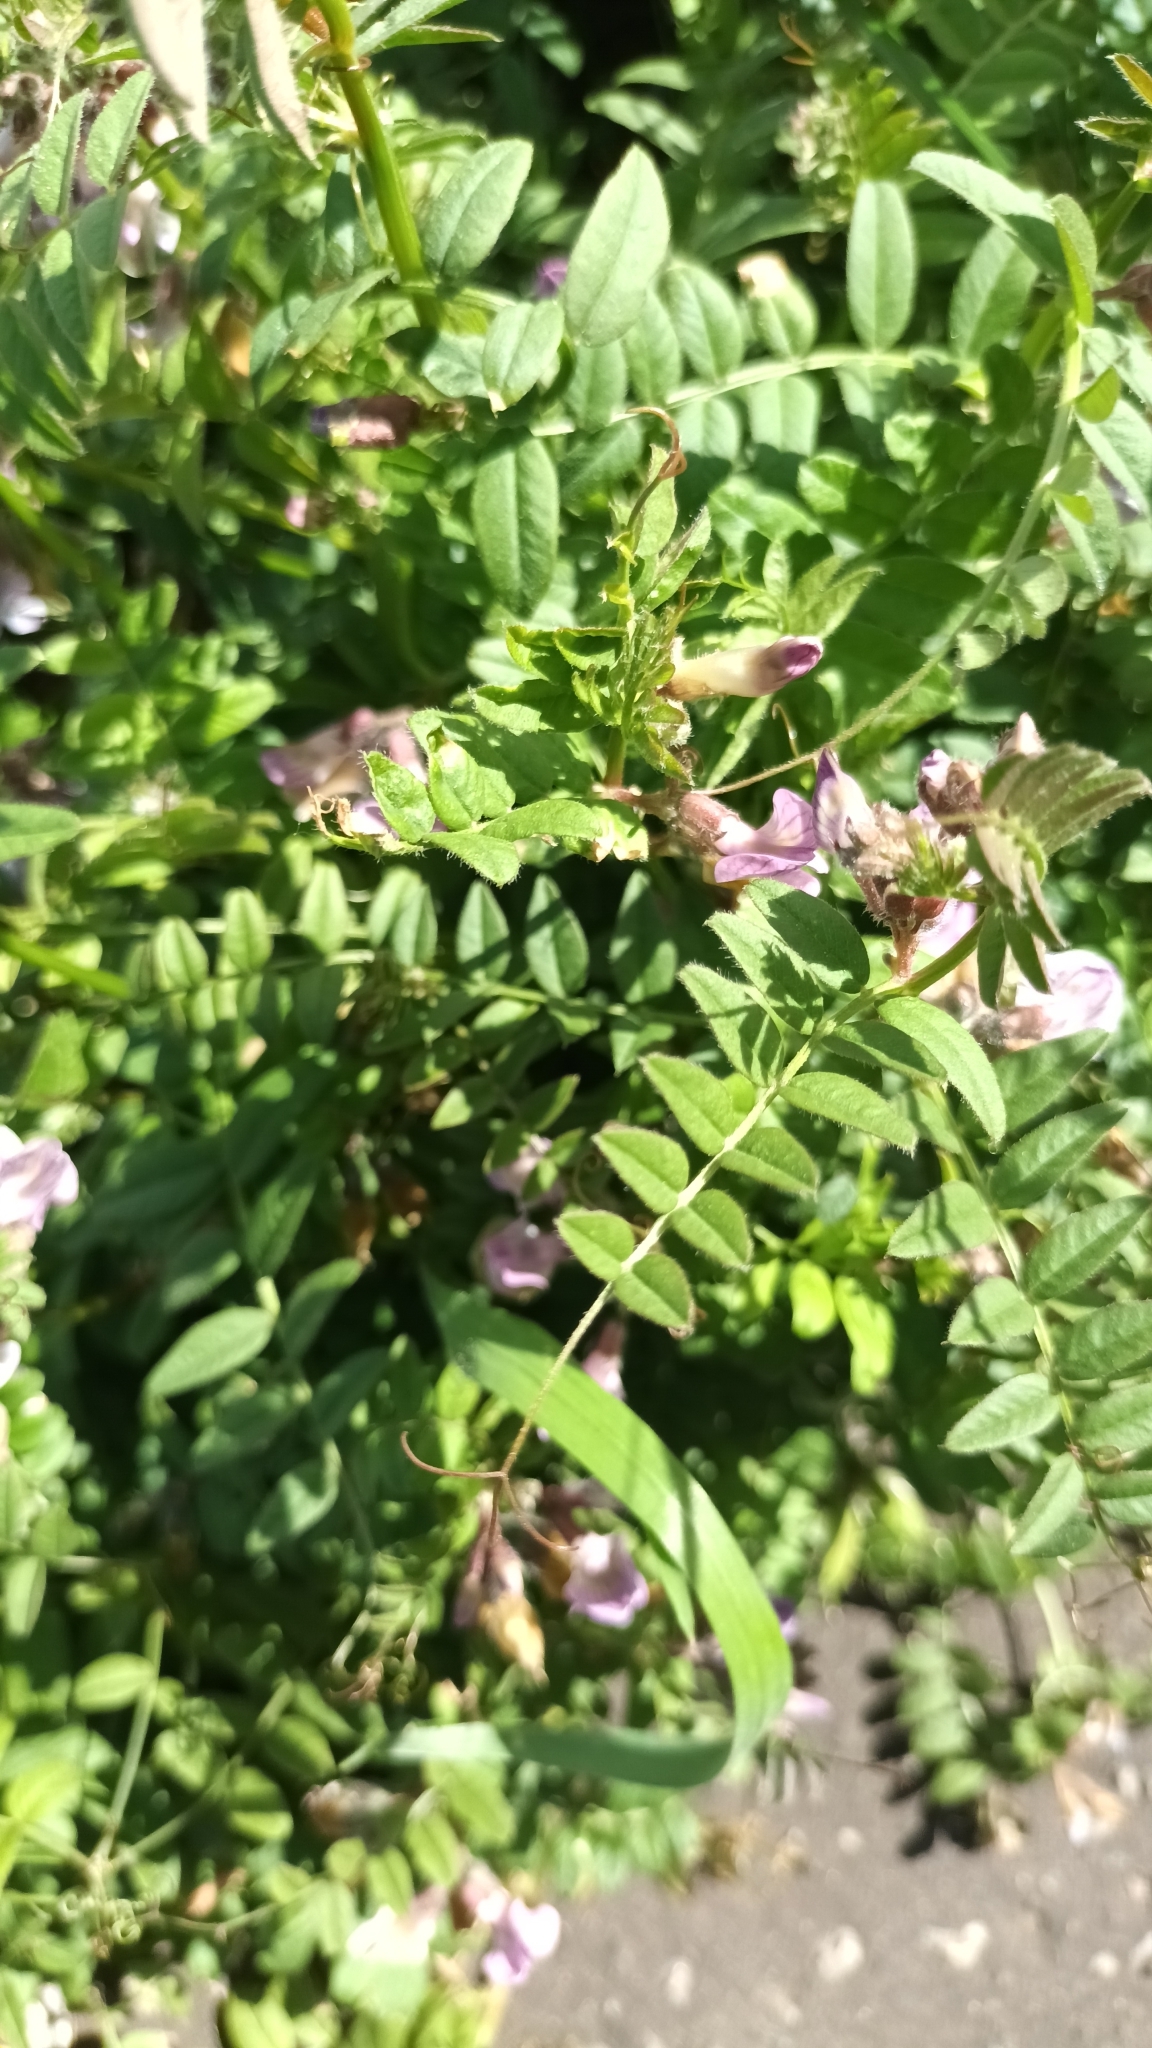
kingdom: Plantae
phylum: Tracheophyta
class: Magnoliopsida
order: Fabales
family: Fabaceae
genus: Vicia
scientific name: Vicia sepium
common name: Bush vetch
